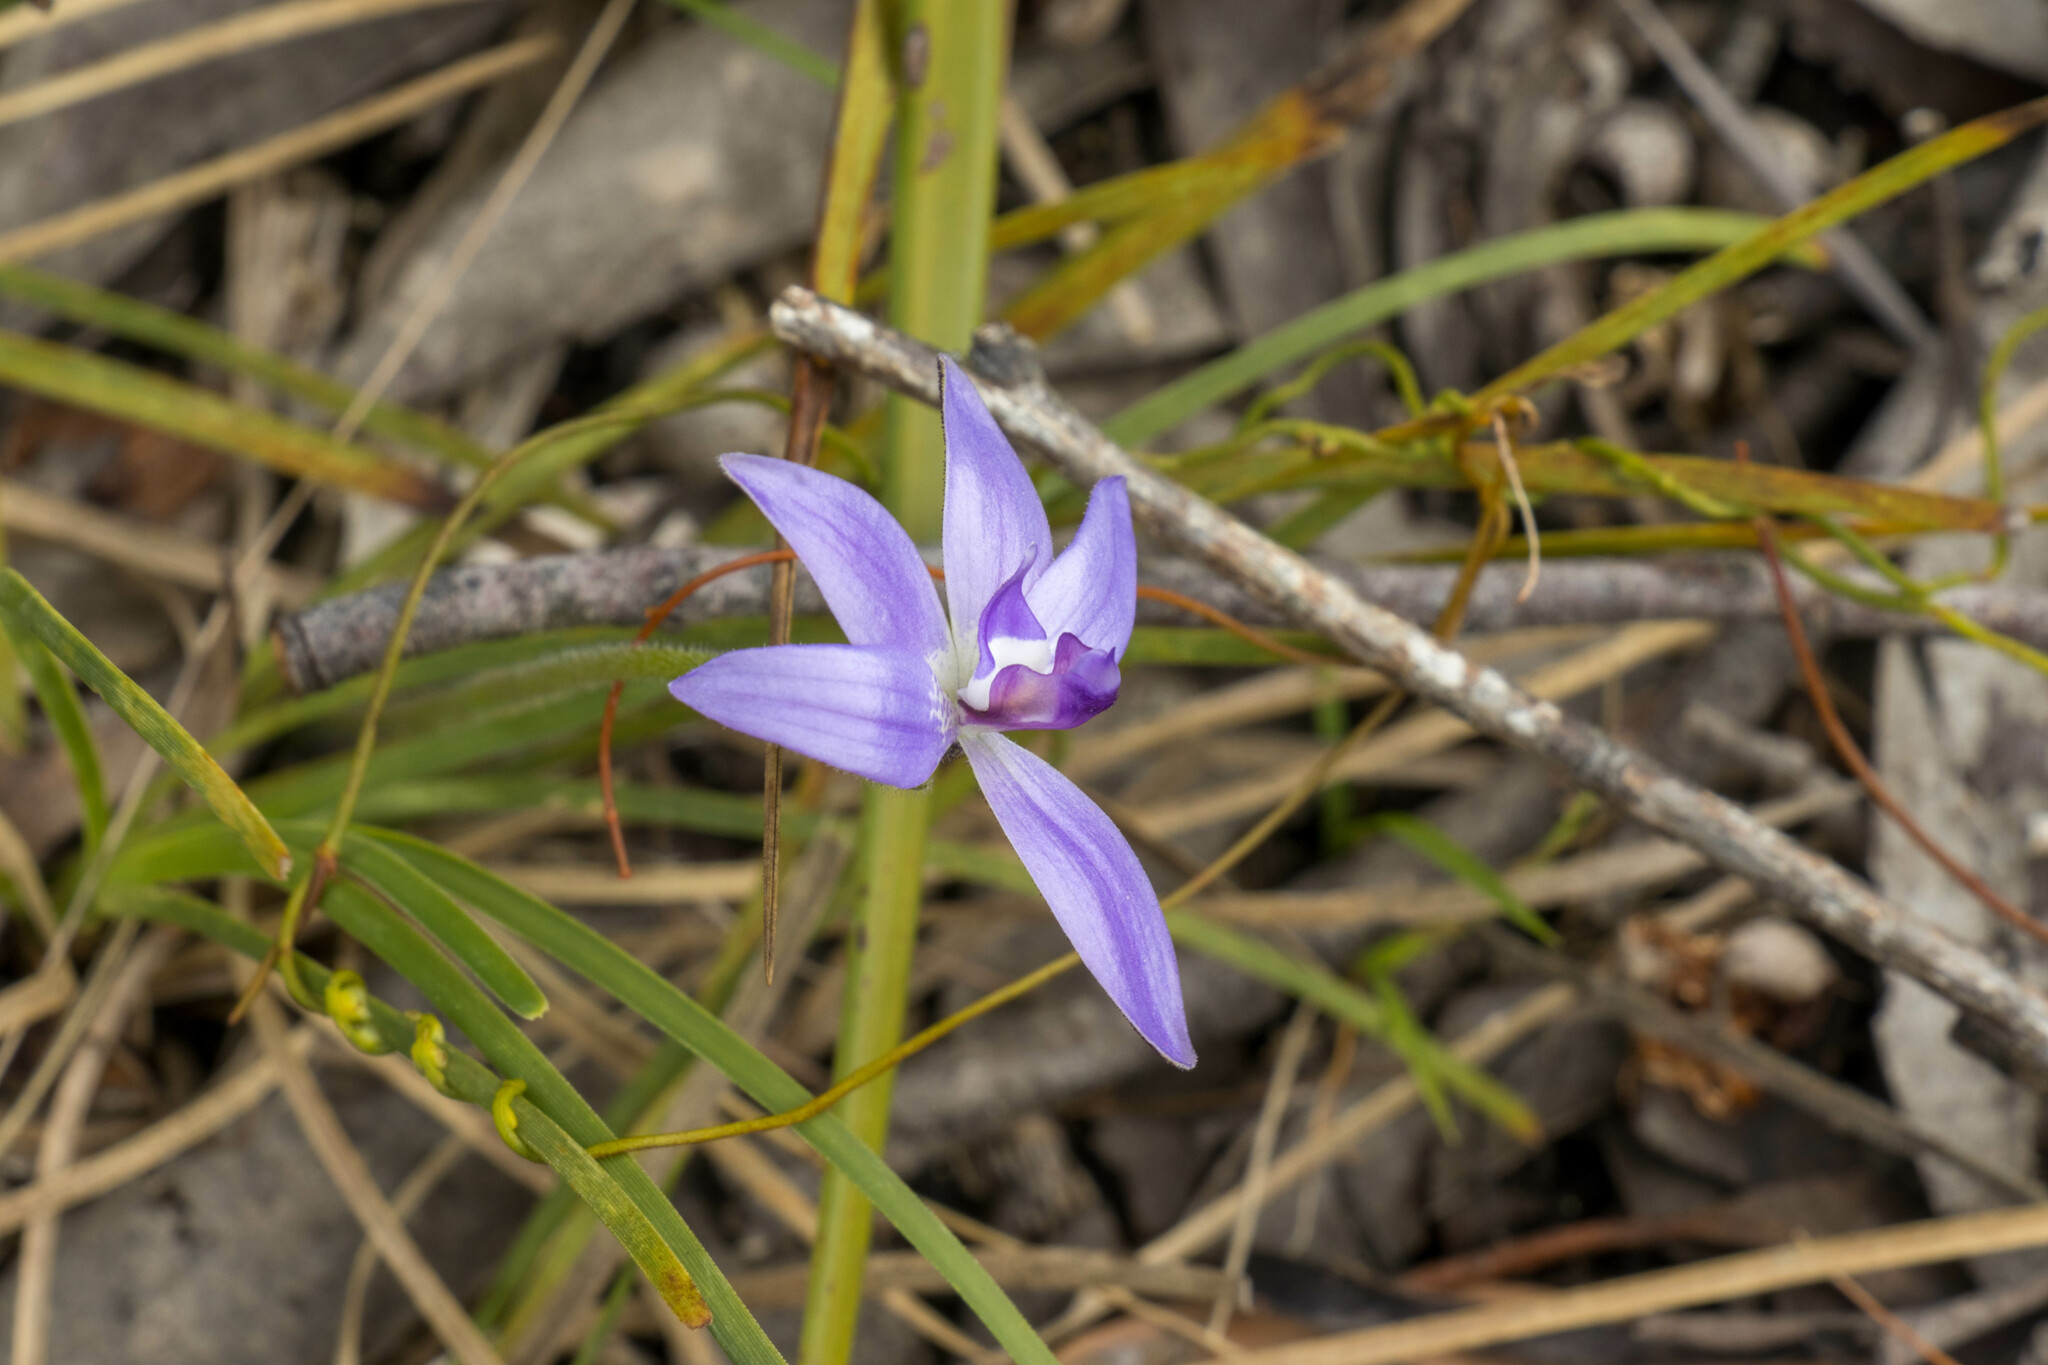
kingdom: Plantae
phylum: Tracheophyta
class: Liliopsida
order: Asparagales
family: Orchidaceae
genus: Caladenia
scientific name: Caladenia major
